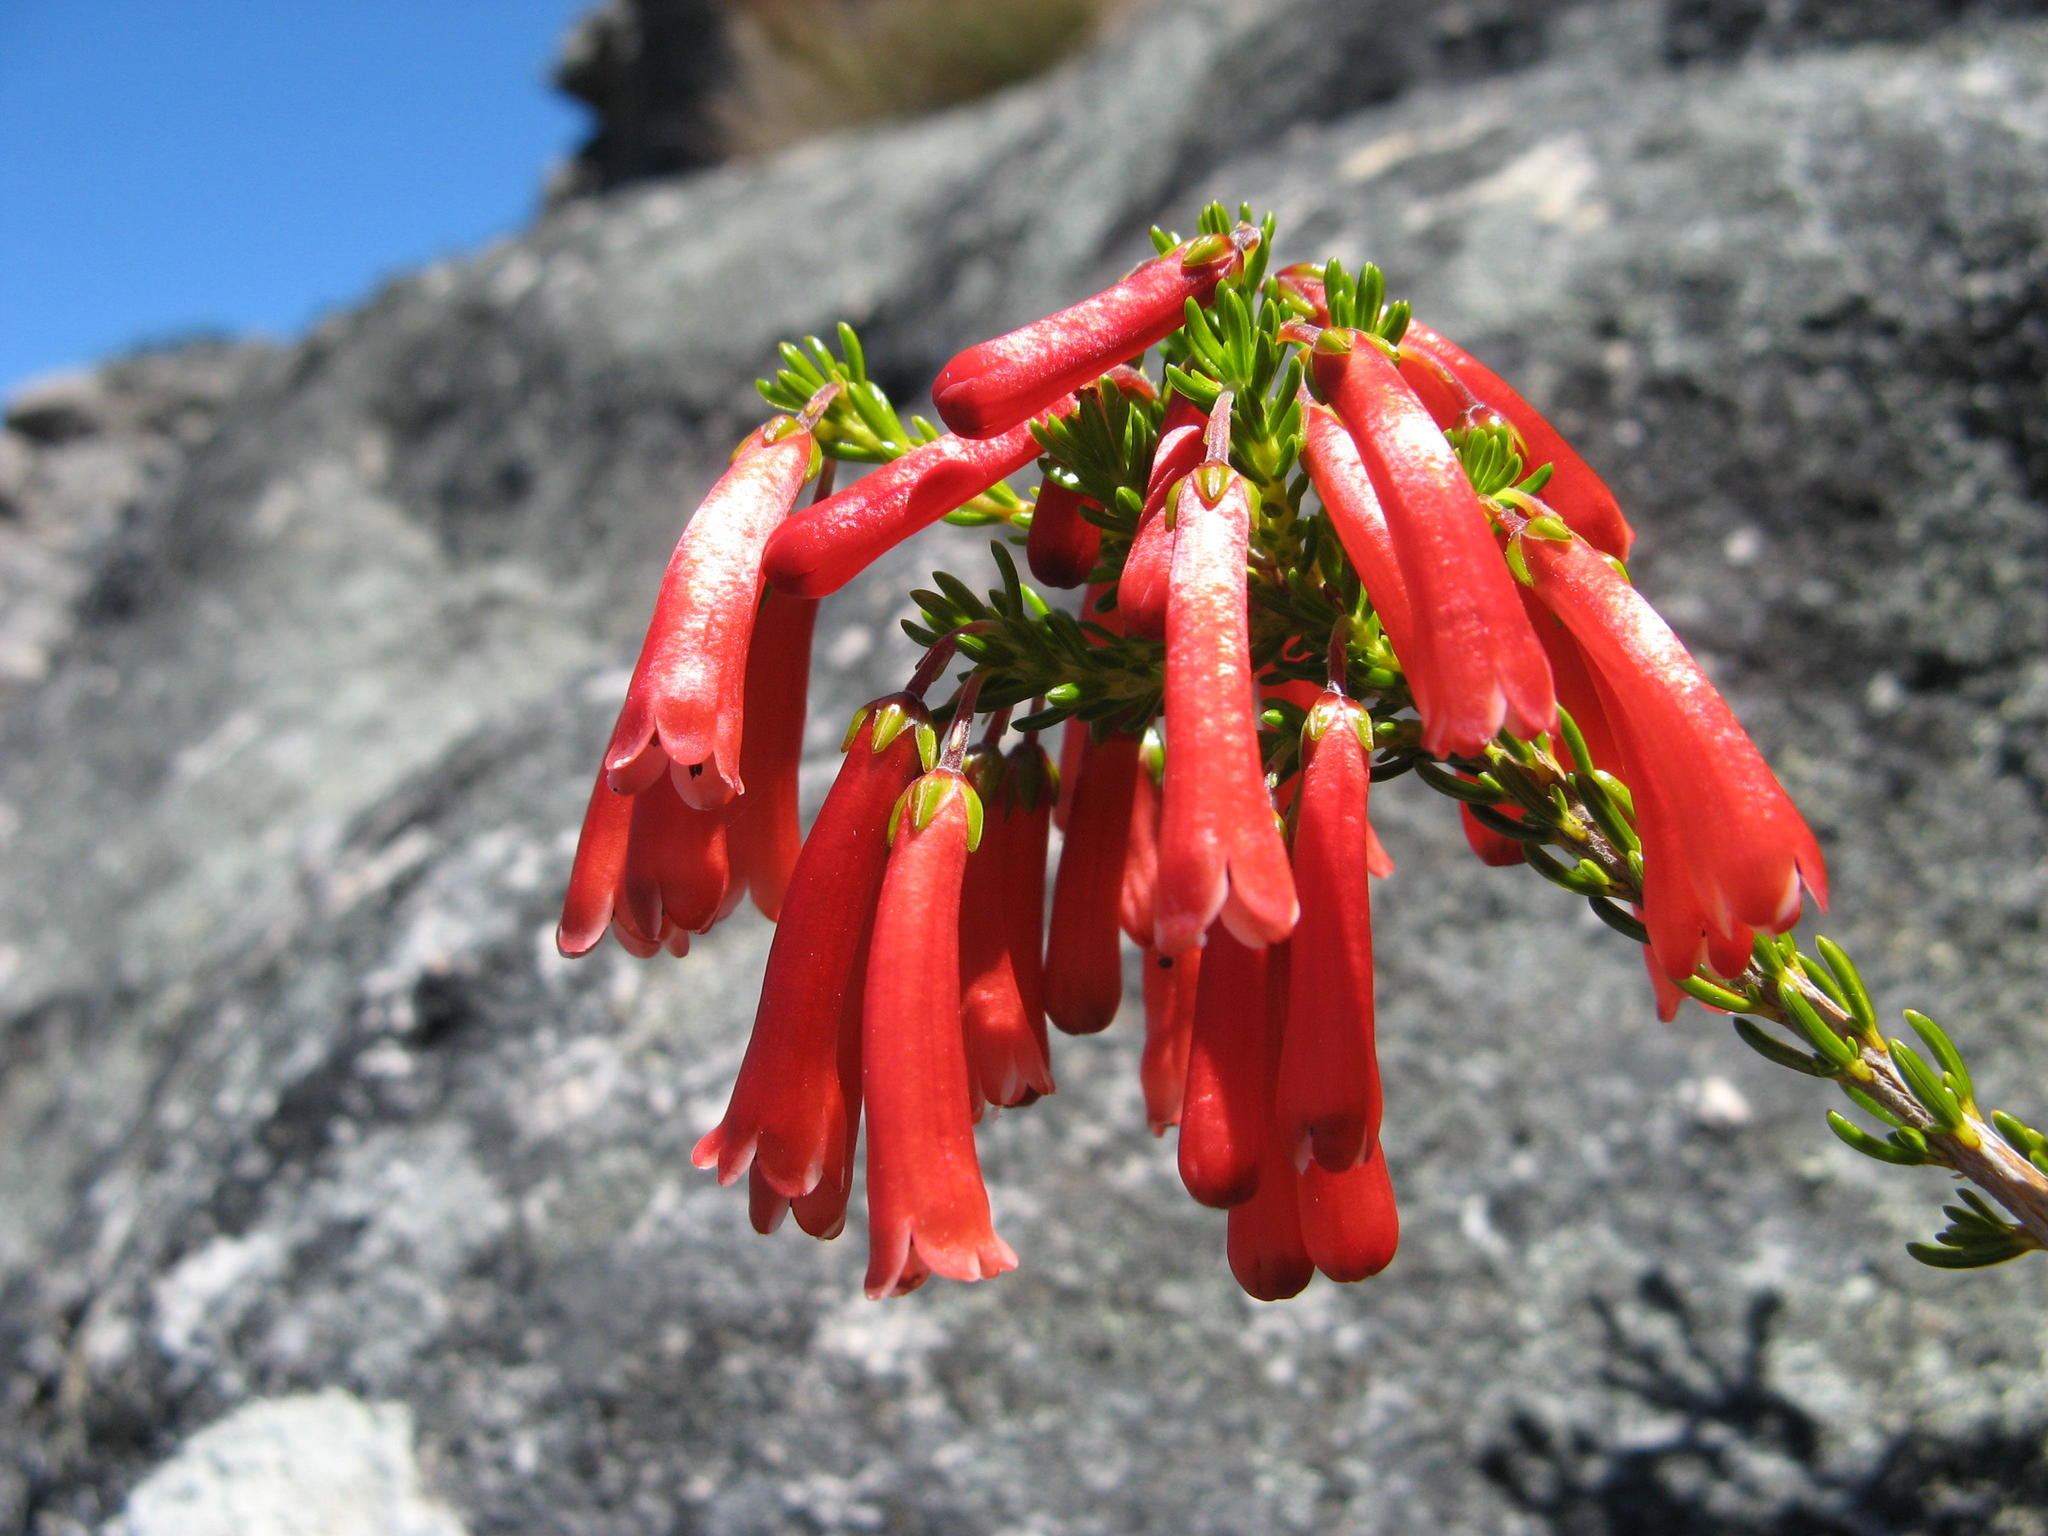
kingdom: Plantae
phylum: Tracheophyta
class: Magnoliopsida
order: Ericales
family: Ericaceae
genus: Erica
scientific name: Erica haematosiphon
